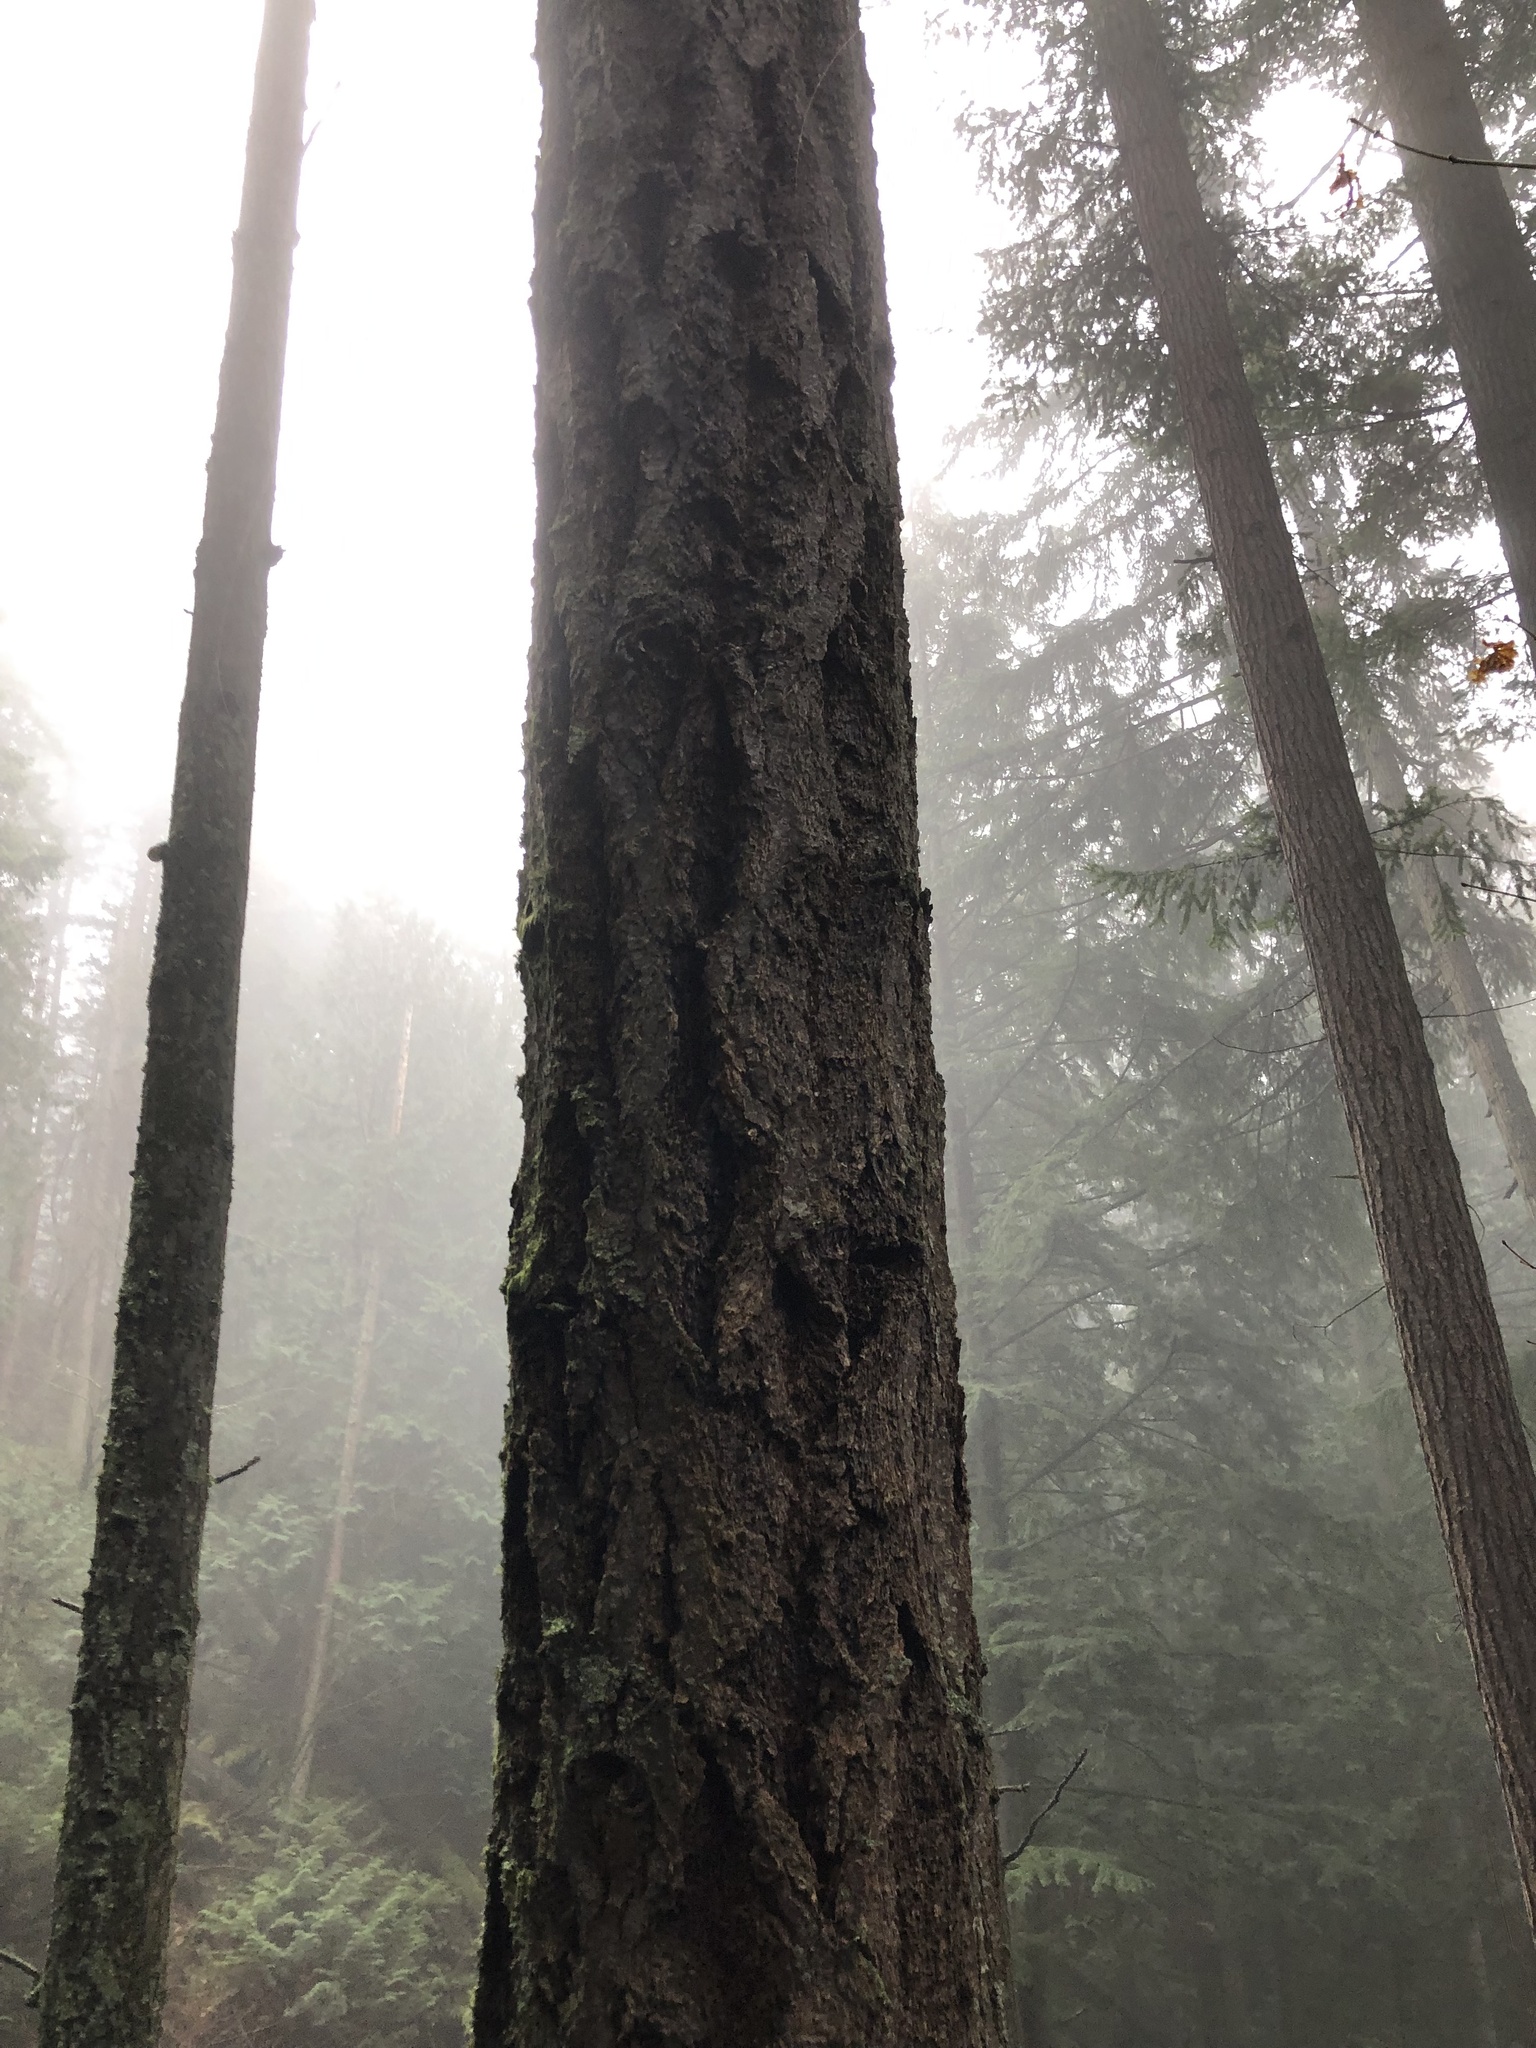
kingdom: Plantae
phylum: Tracheophyta
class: Pinopsida
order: Pinales
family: Pinaceae
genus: Pseudotsuga
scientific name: Pseudotsuga menziesii
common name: Douglas fir
